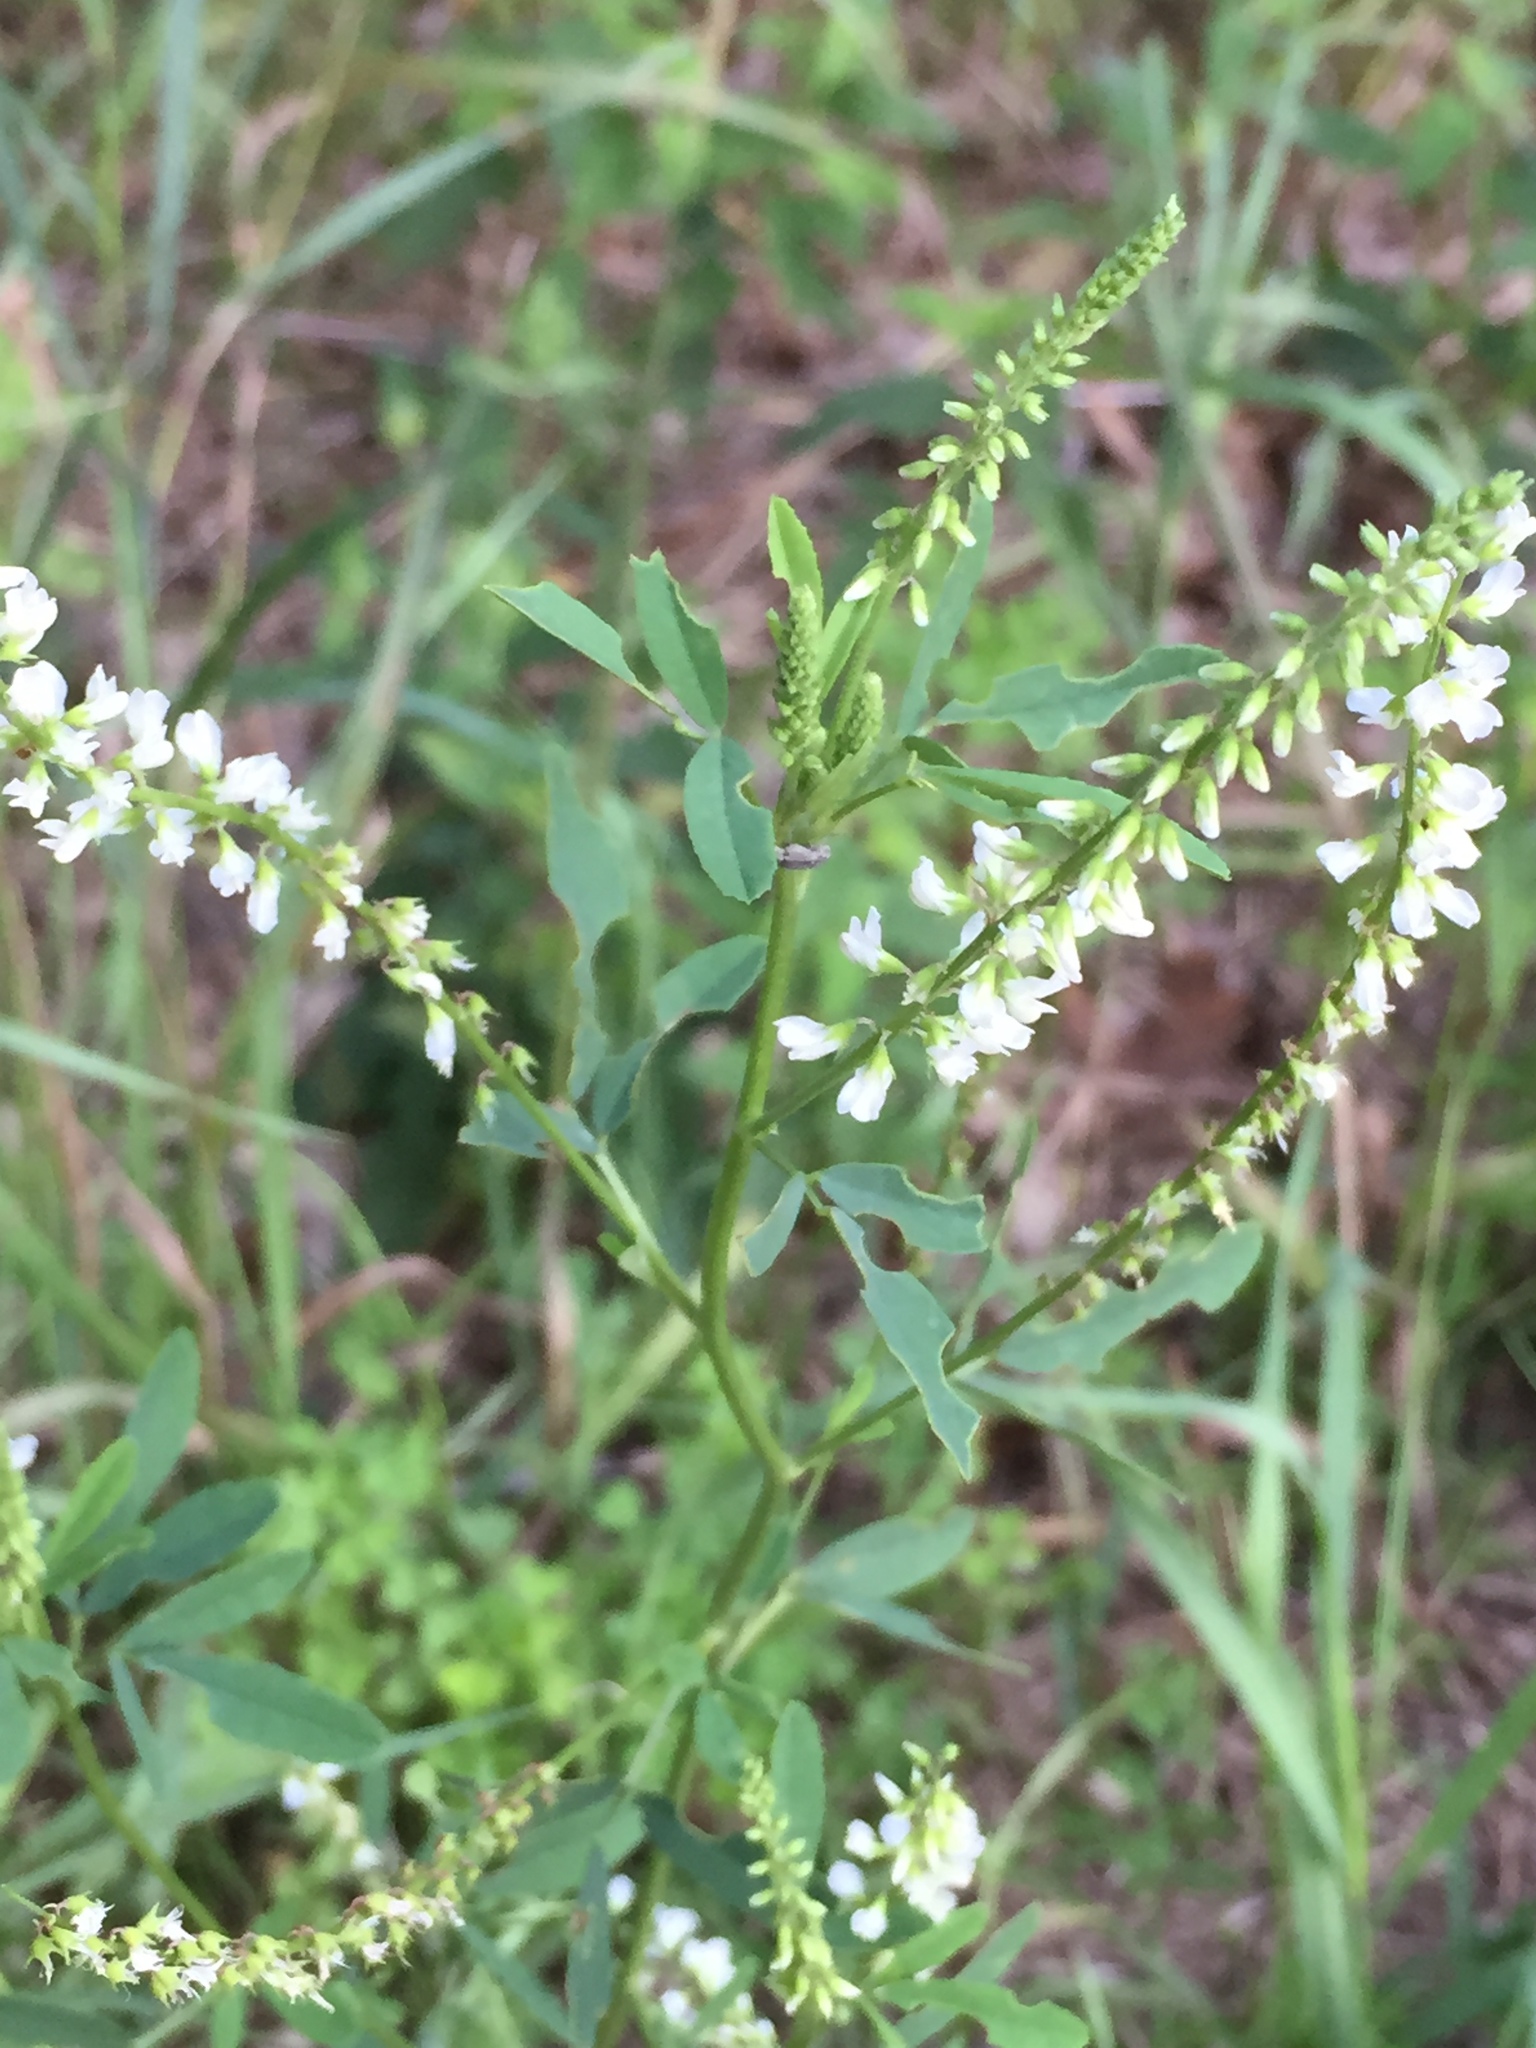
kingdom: Plantae
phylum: Tracheophyta
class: Magnoliopsida
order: Fabales
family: Fabaceae
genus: Melilotus
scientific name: Melilotus albus
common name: White melilot
